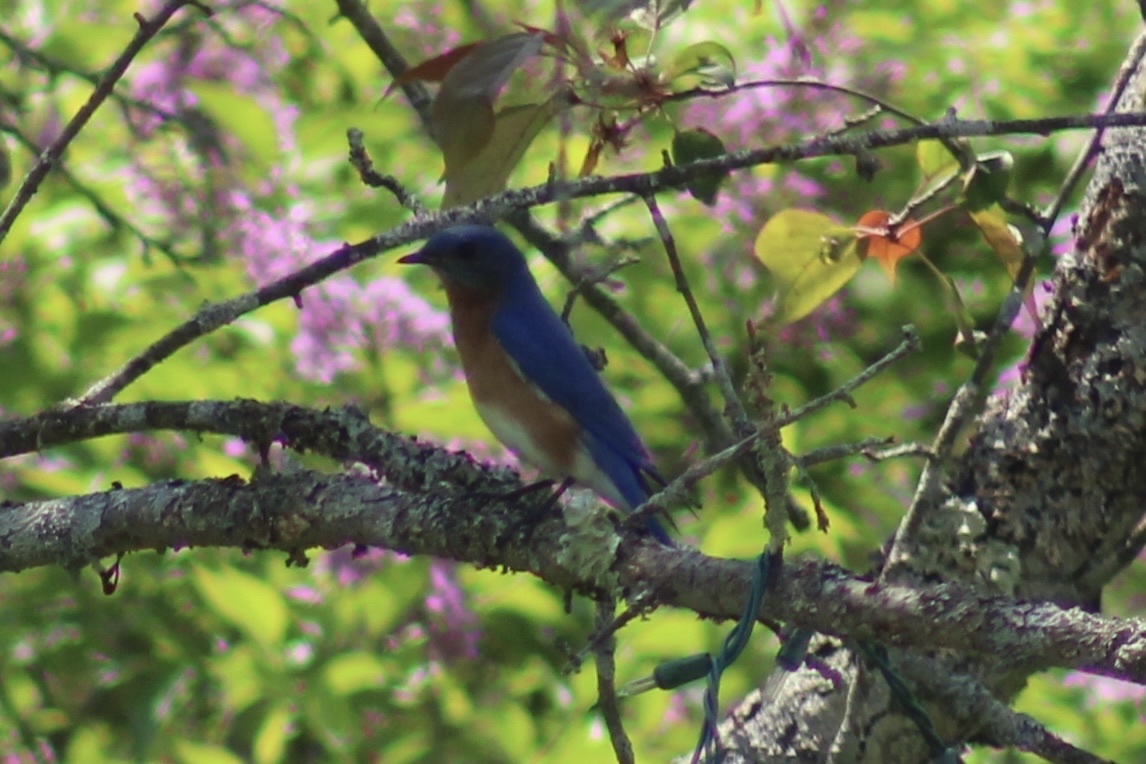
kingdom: Animalia
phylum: Chordata
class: Aves
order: Passeriformes
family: Turdidae
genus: Sialia
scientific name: Sialia sialis
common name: Eastern bluebird
